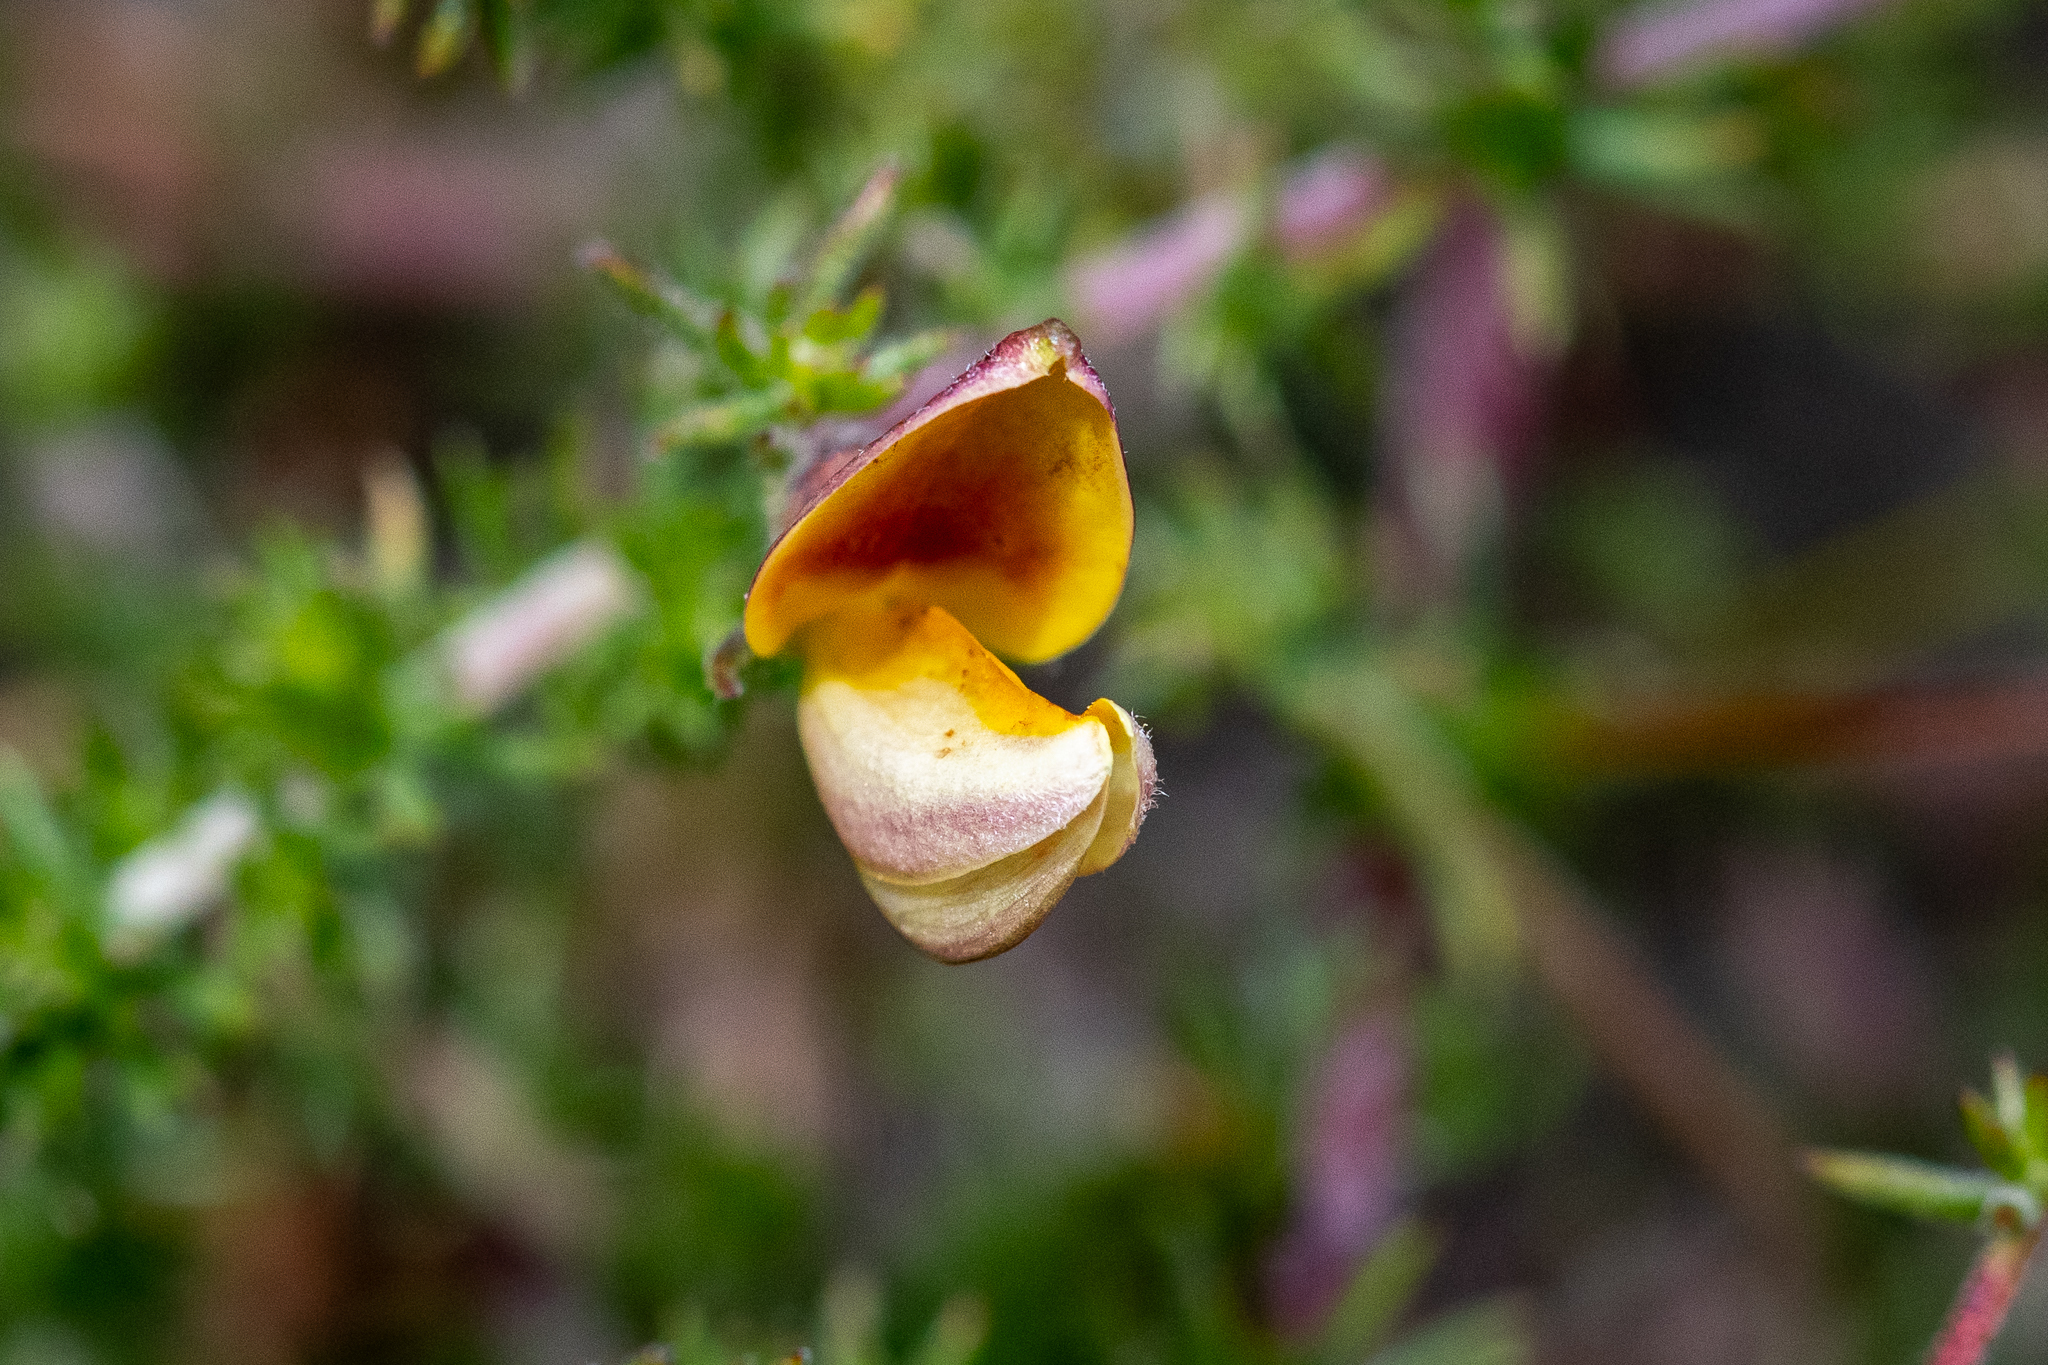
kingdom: Plantae
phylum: Tracheophyta
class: Magnoliopsida
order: Fabales
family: Fabaceae
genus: Aspalathus
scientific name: Aspalathus retroflexa
